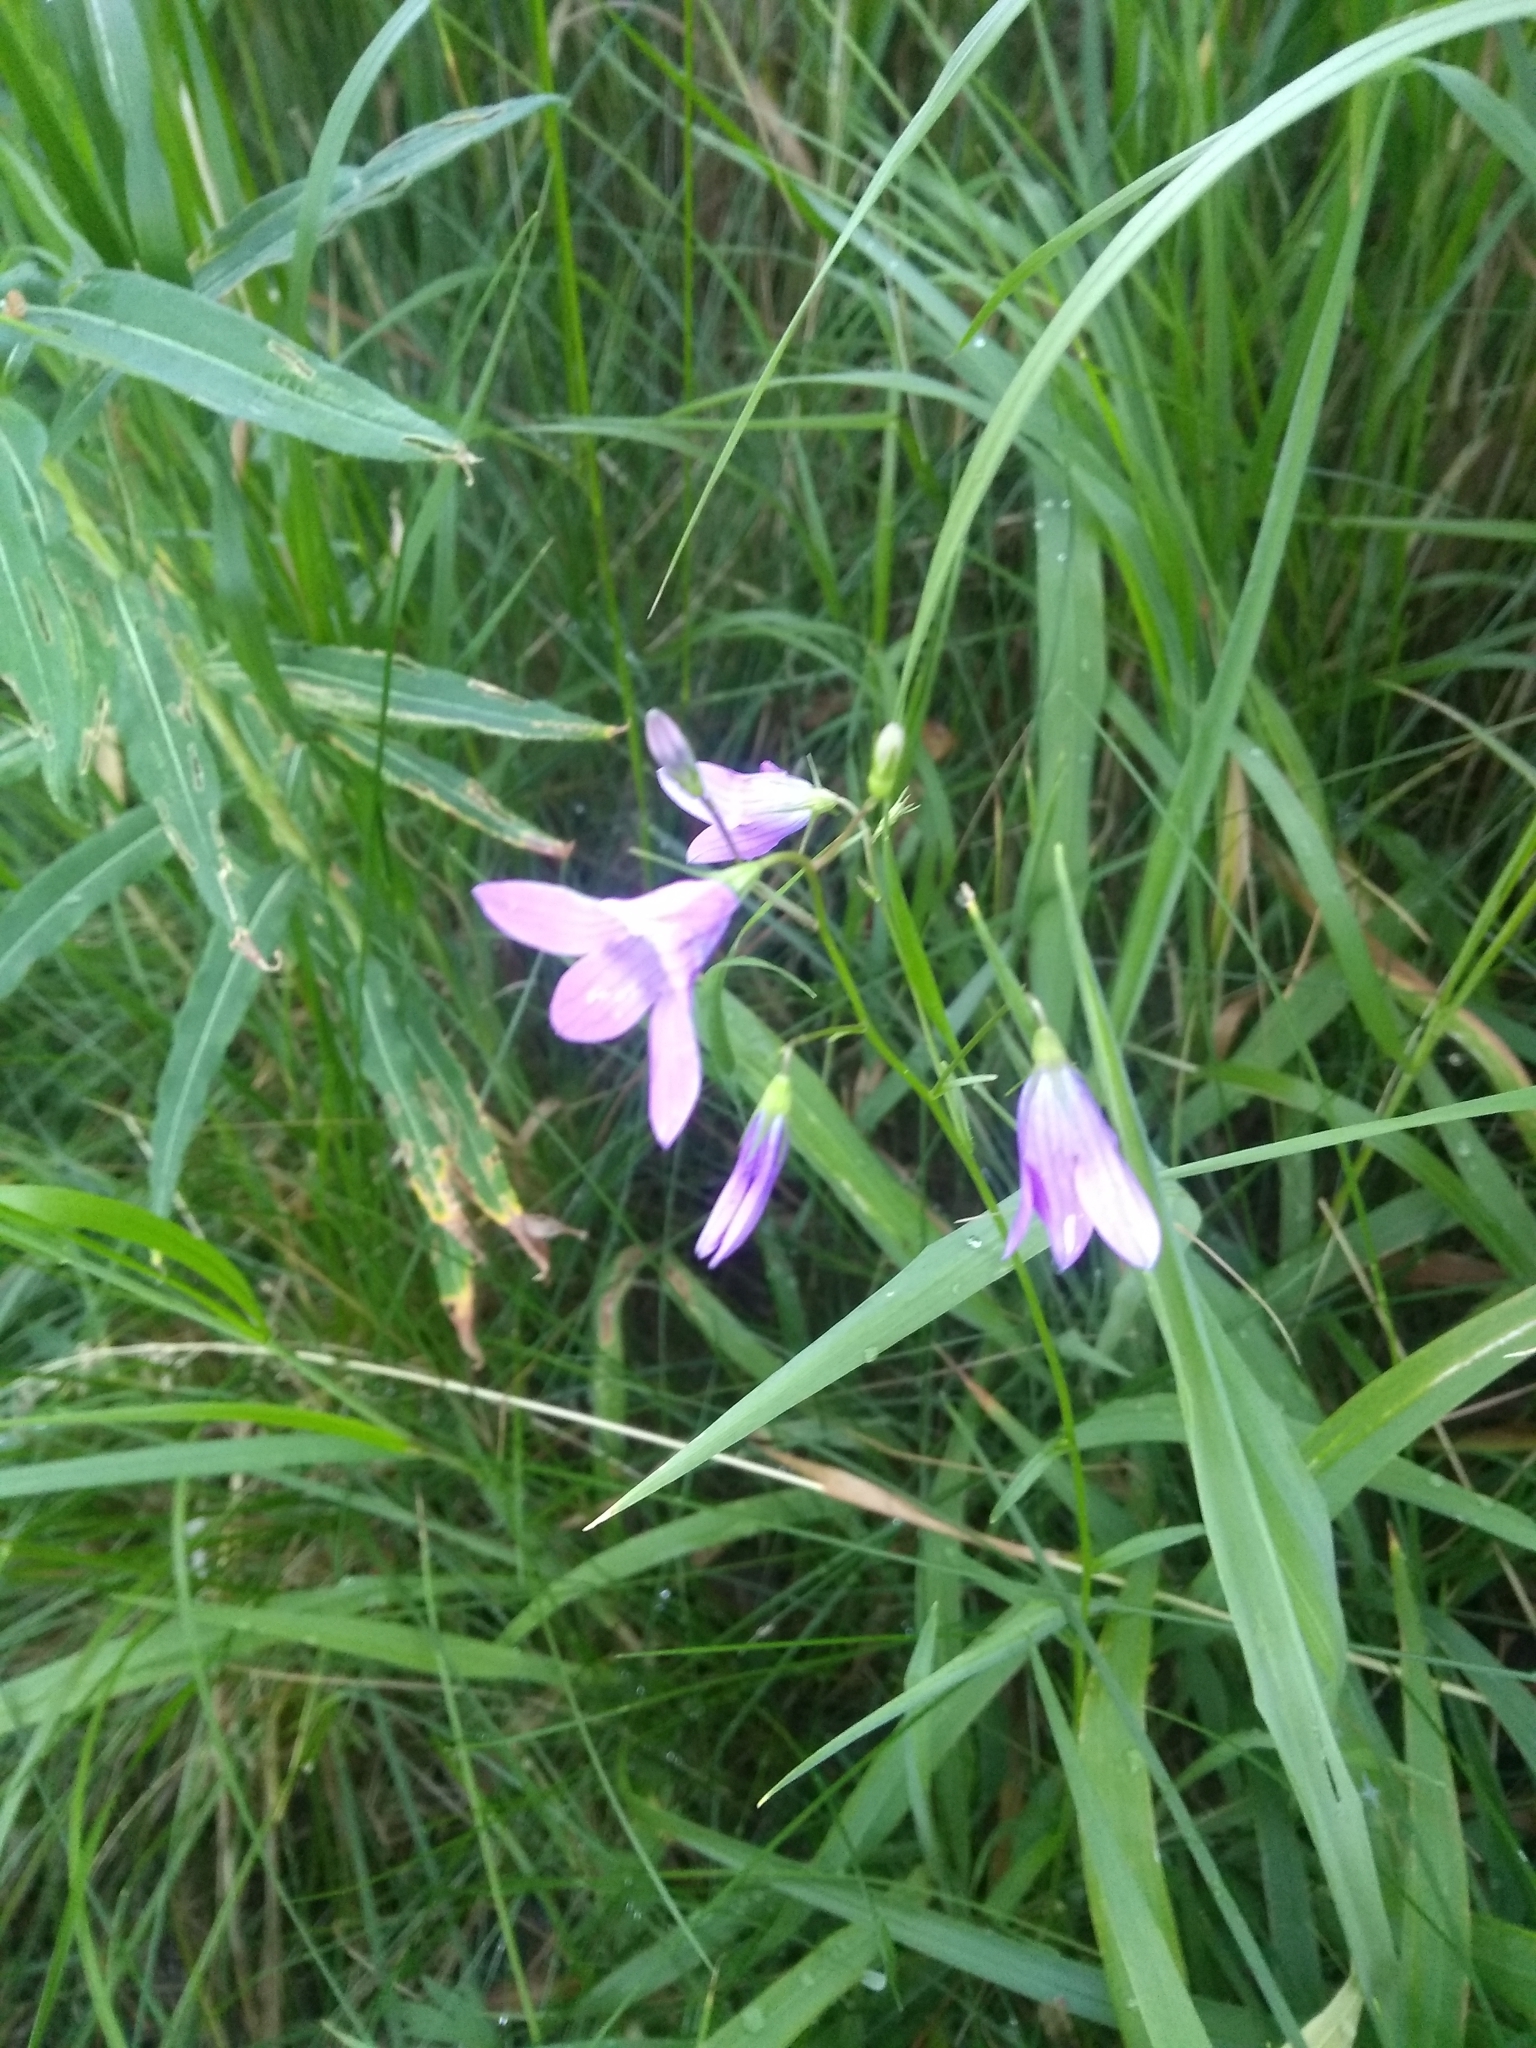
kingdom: Plantae
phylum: Tracheophyta
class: Magnoliopsida
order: Asterales
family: Campanulaceae
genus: Campanula
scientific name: Campanula patula
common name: Spreading bellflower
